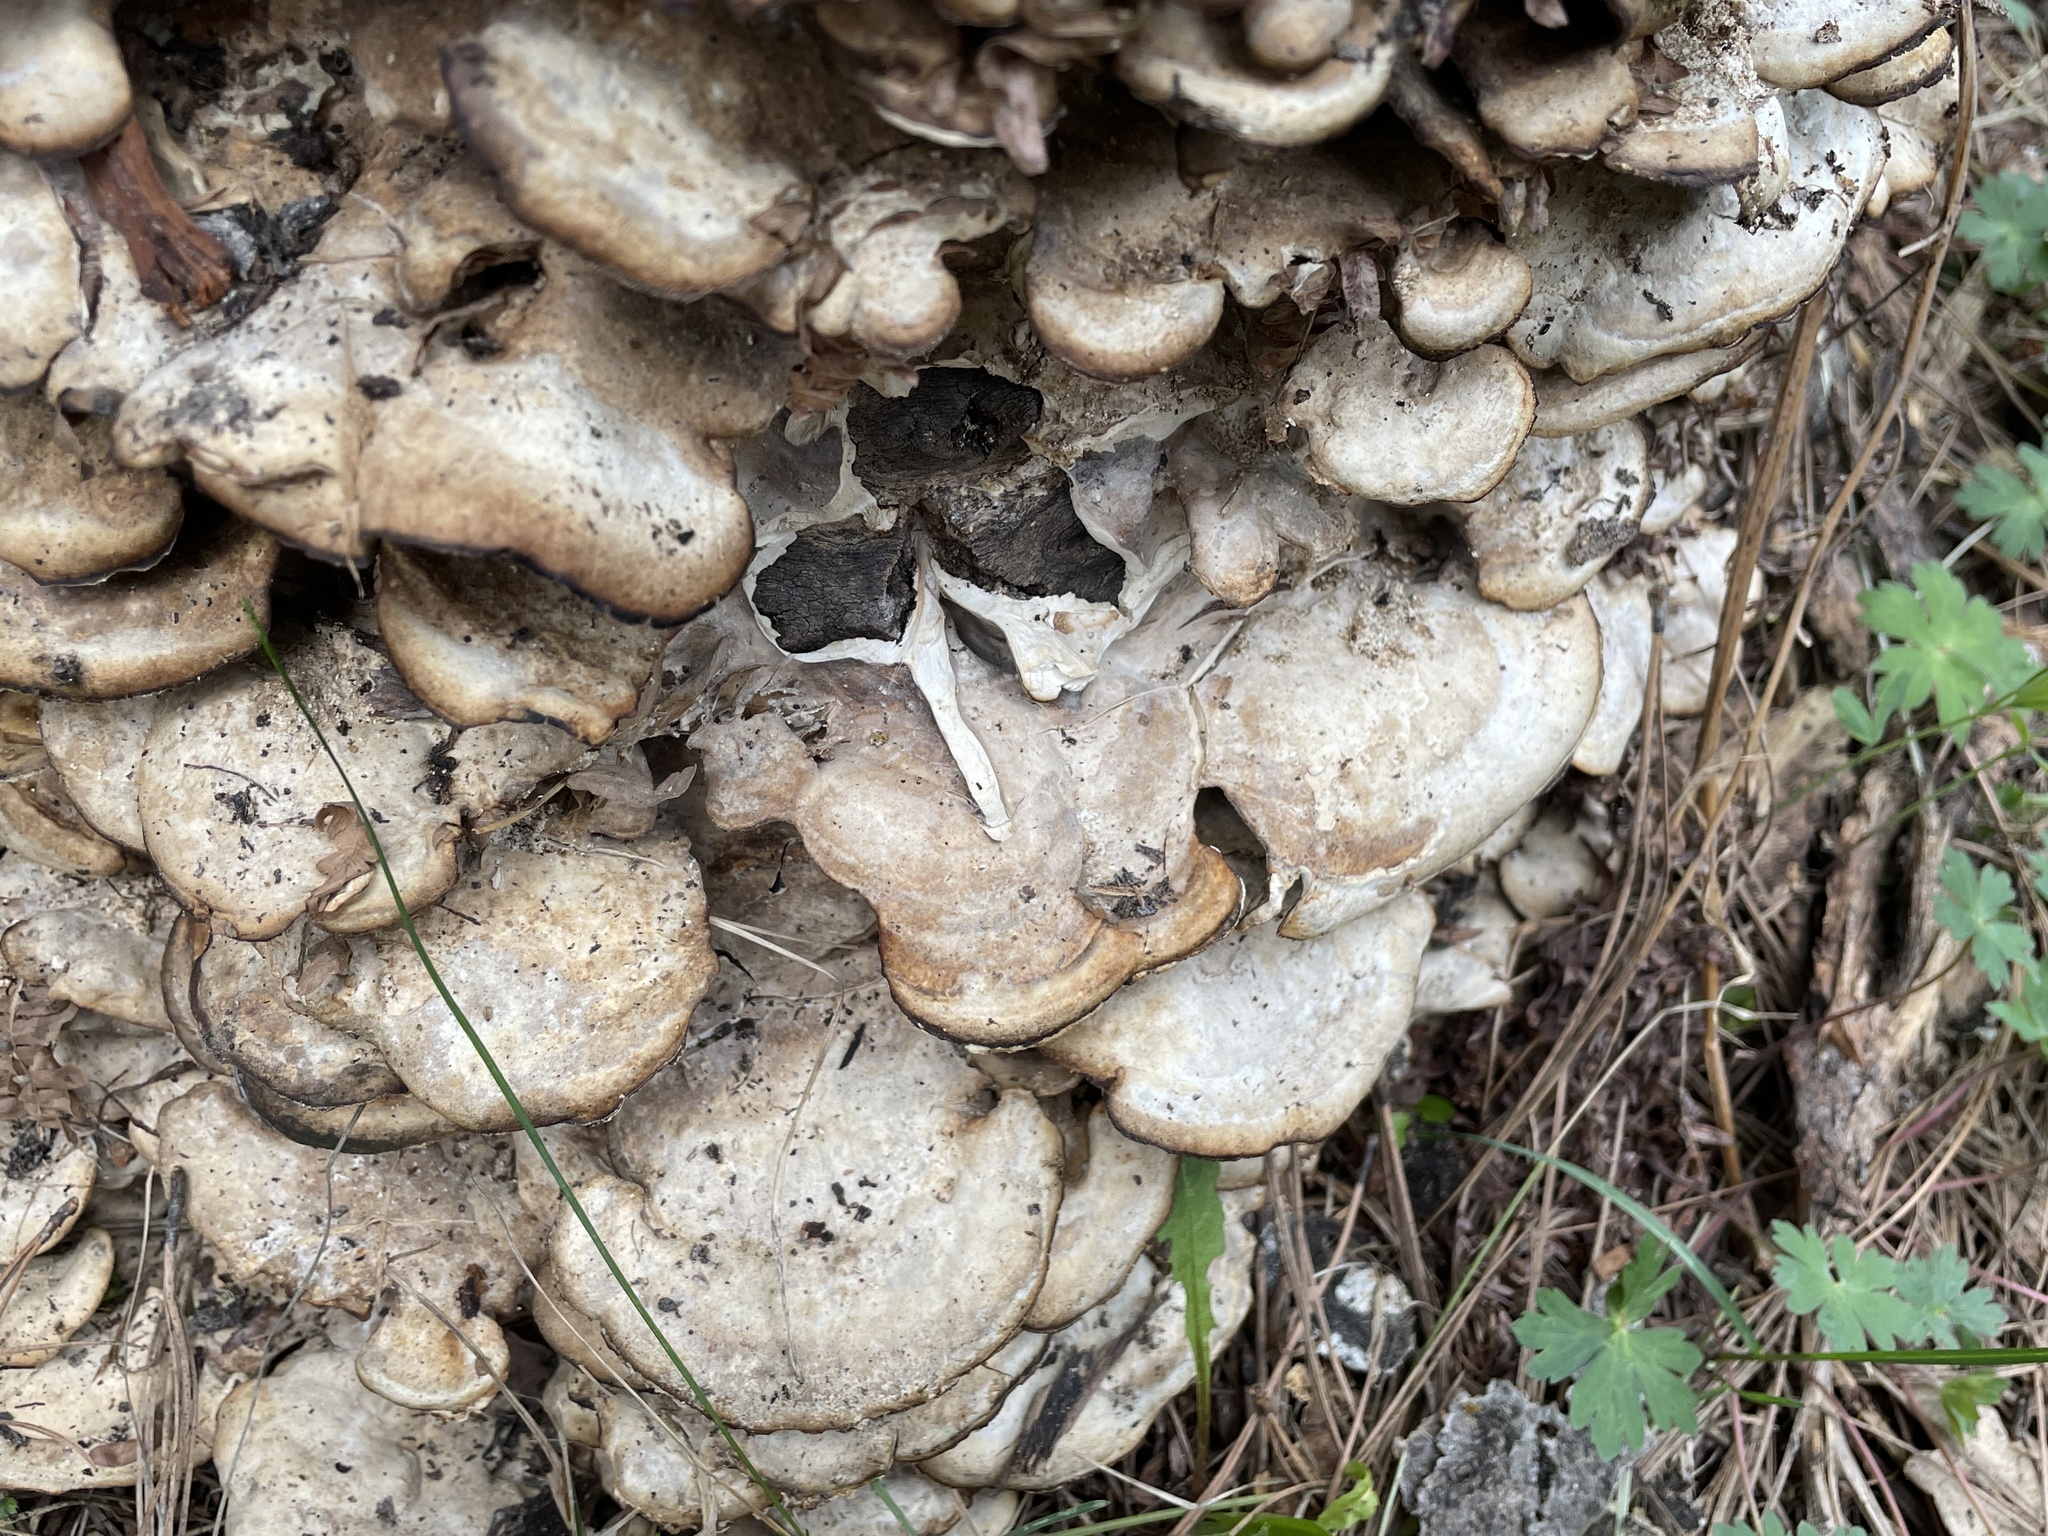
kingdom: Fungi
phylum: Basidiomycota
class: Agaricomycetes
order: Polyporales
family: Phanerochaetaceae
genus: Bjerkandera
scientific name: Bjerkandera adusta
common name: Smoky bracket
